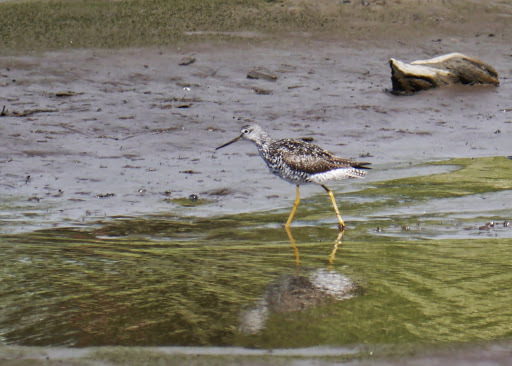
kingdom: Animalia
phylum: Chordata
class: Aves
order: Charadriiformes
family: Scolopacidae
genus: Tringa
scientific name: Tringa melanoleuca
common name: Greater yellowlegs
